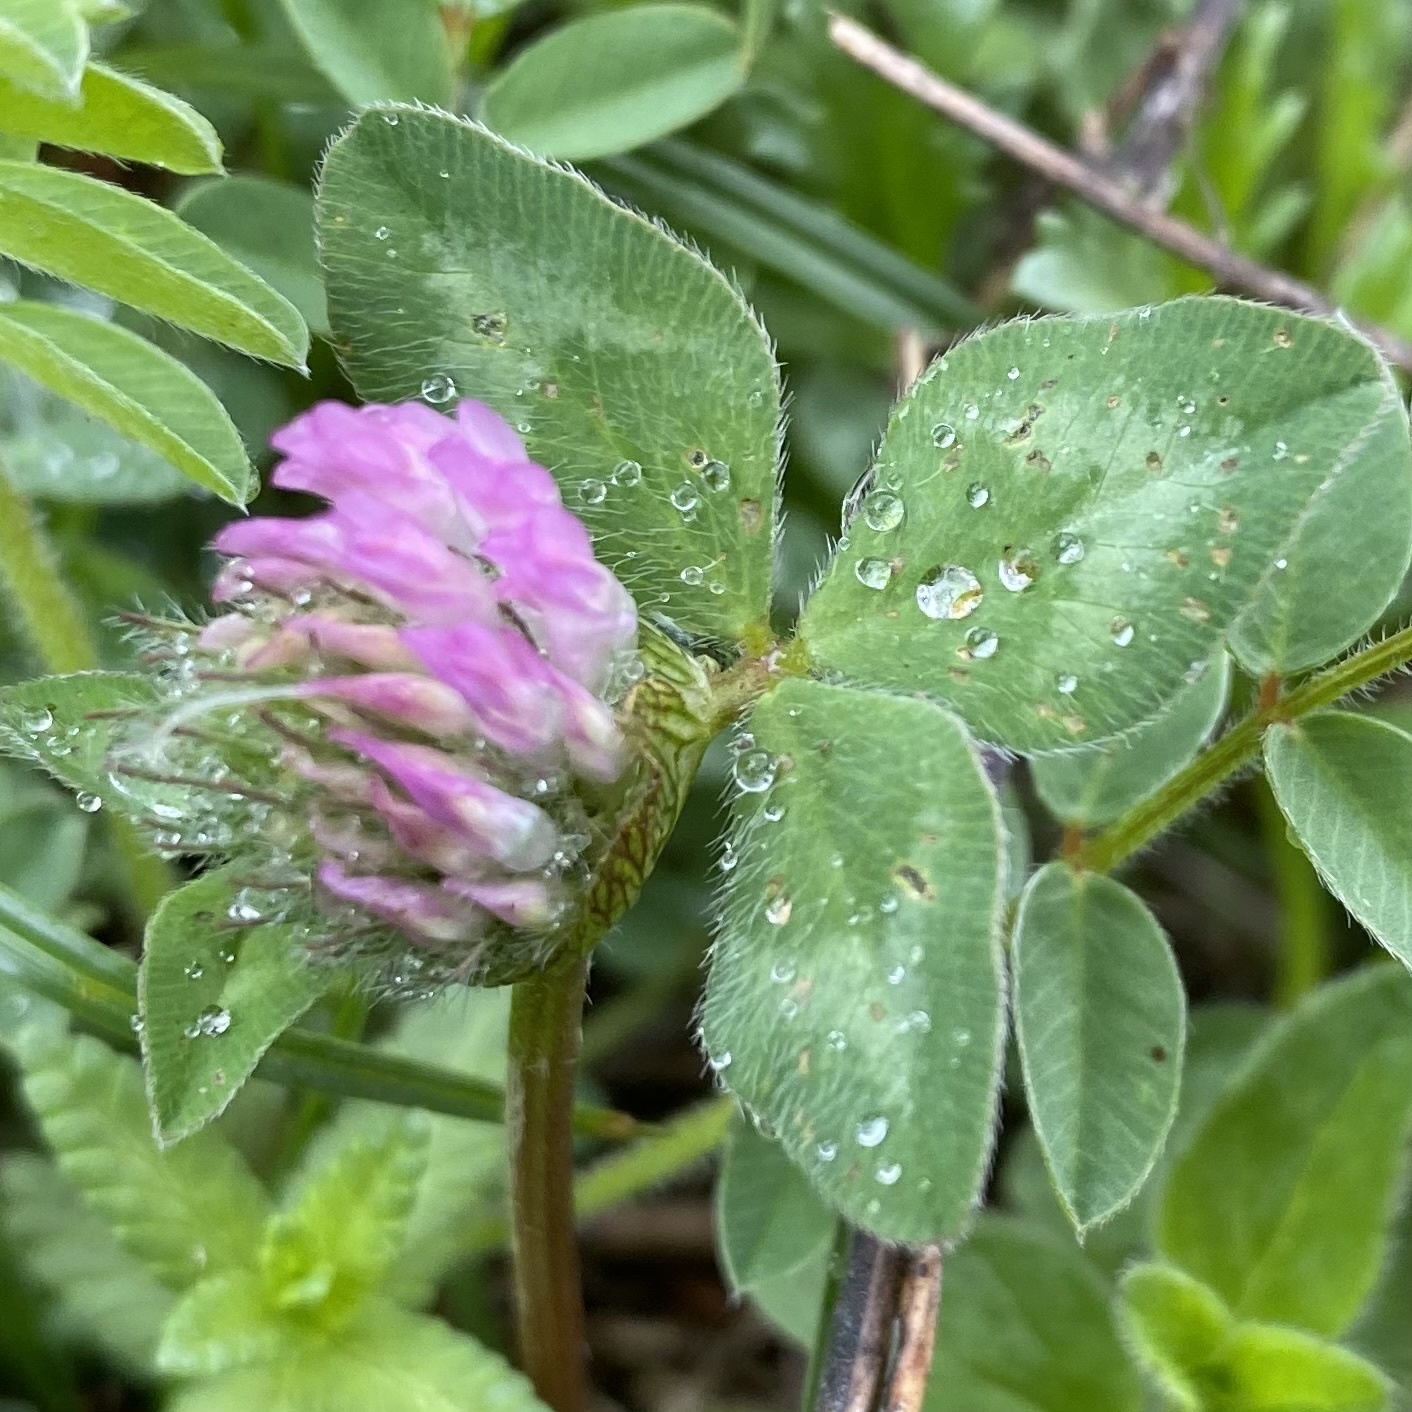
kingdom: Plantae
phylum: Tracheophyta
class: Magnoliopsida
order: Fabales
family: Fabaceae
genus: Trifolium
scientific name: Trifolium pratense
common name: Red clover
